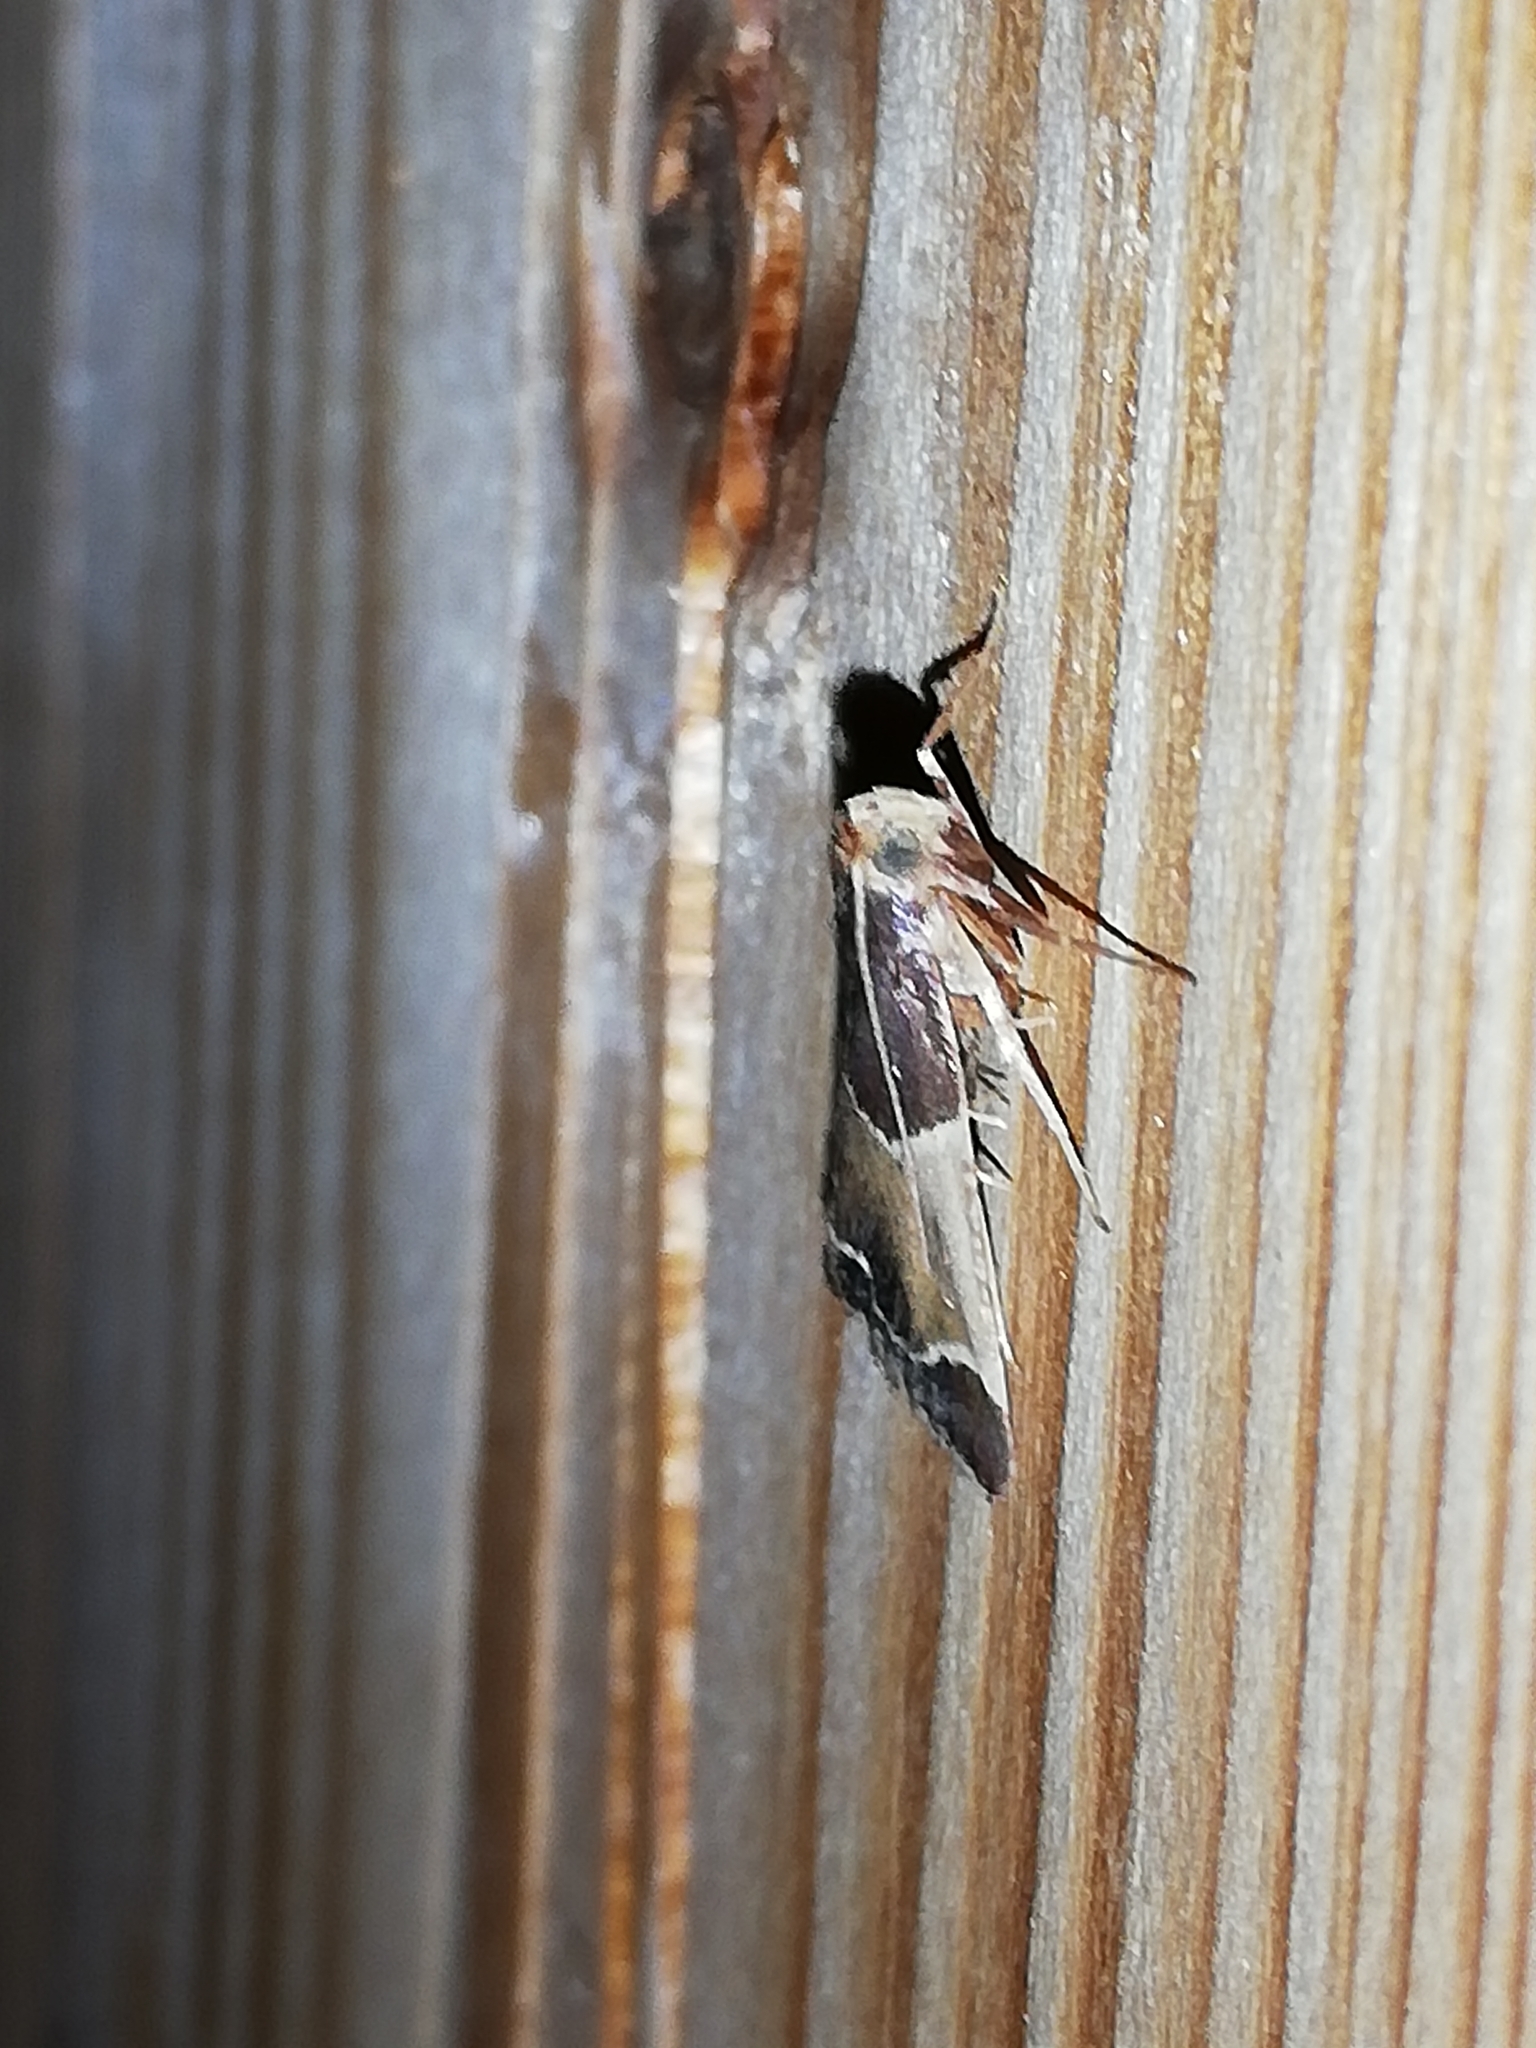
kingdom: Animalia
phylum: Arthropoda
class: Insecta
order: Lepidoptera
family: Pyralidae
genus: Pyralis
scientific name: Pyralis farinalis
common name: Meal moth
